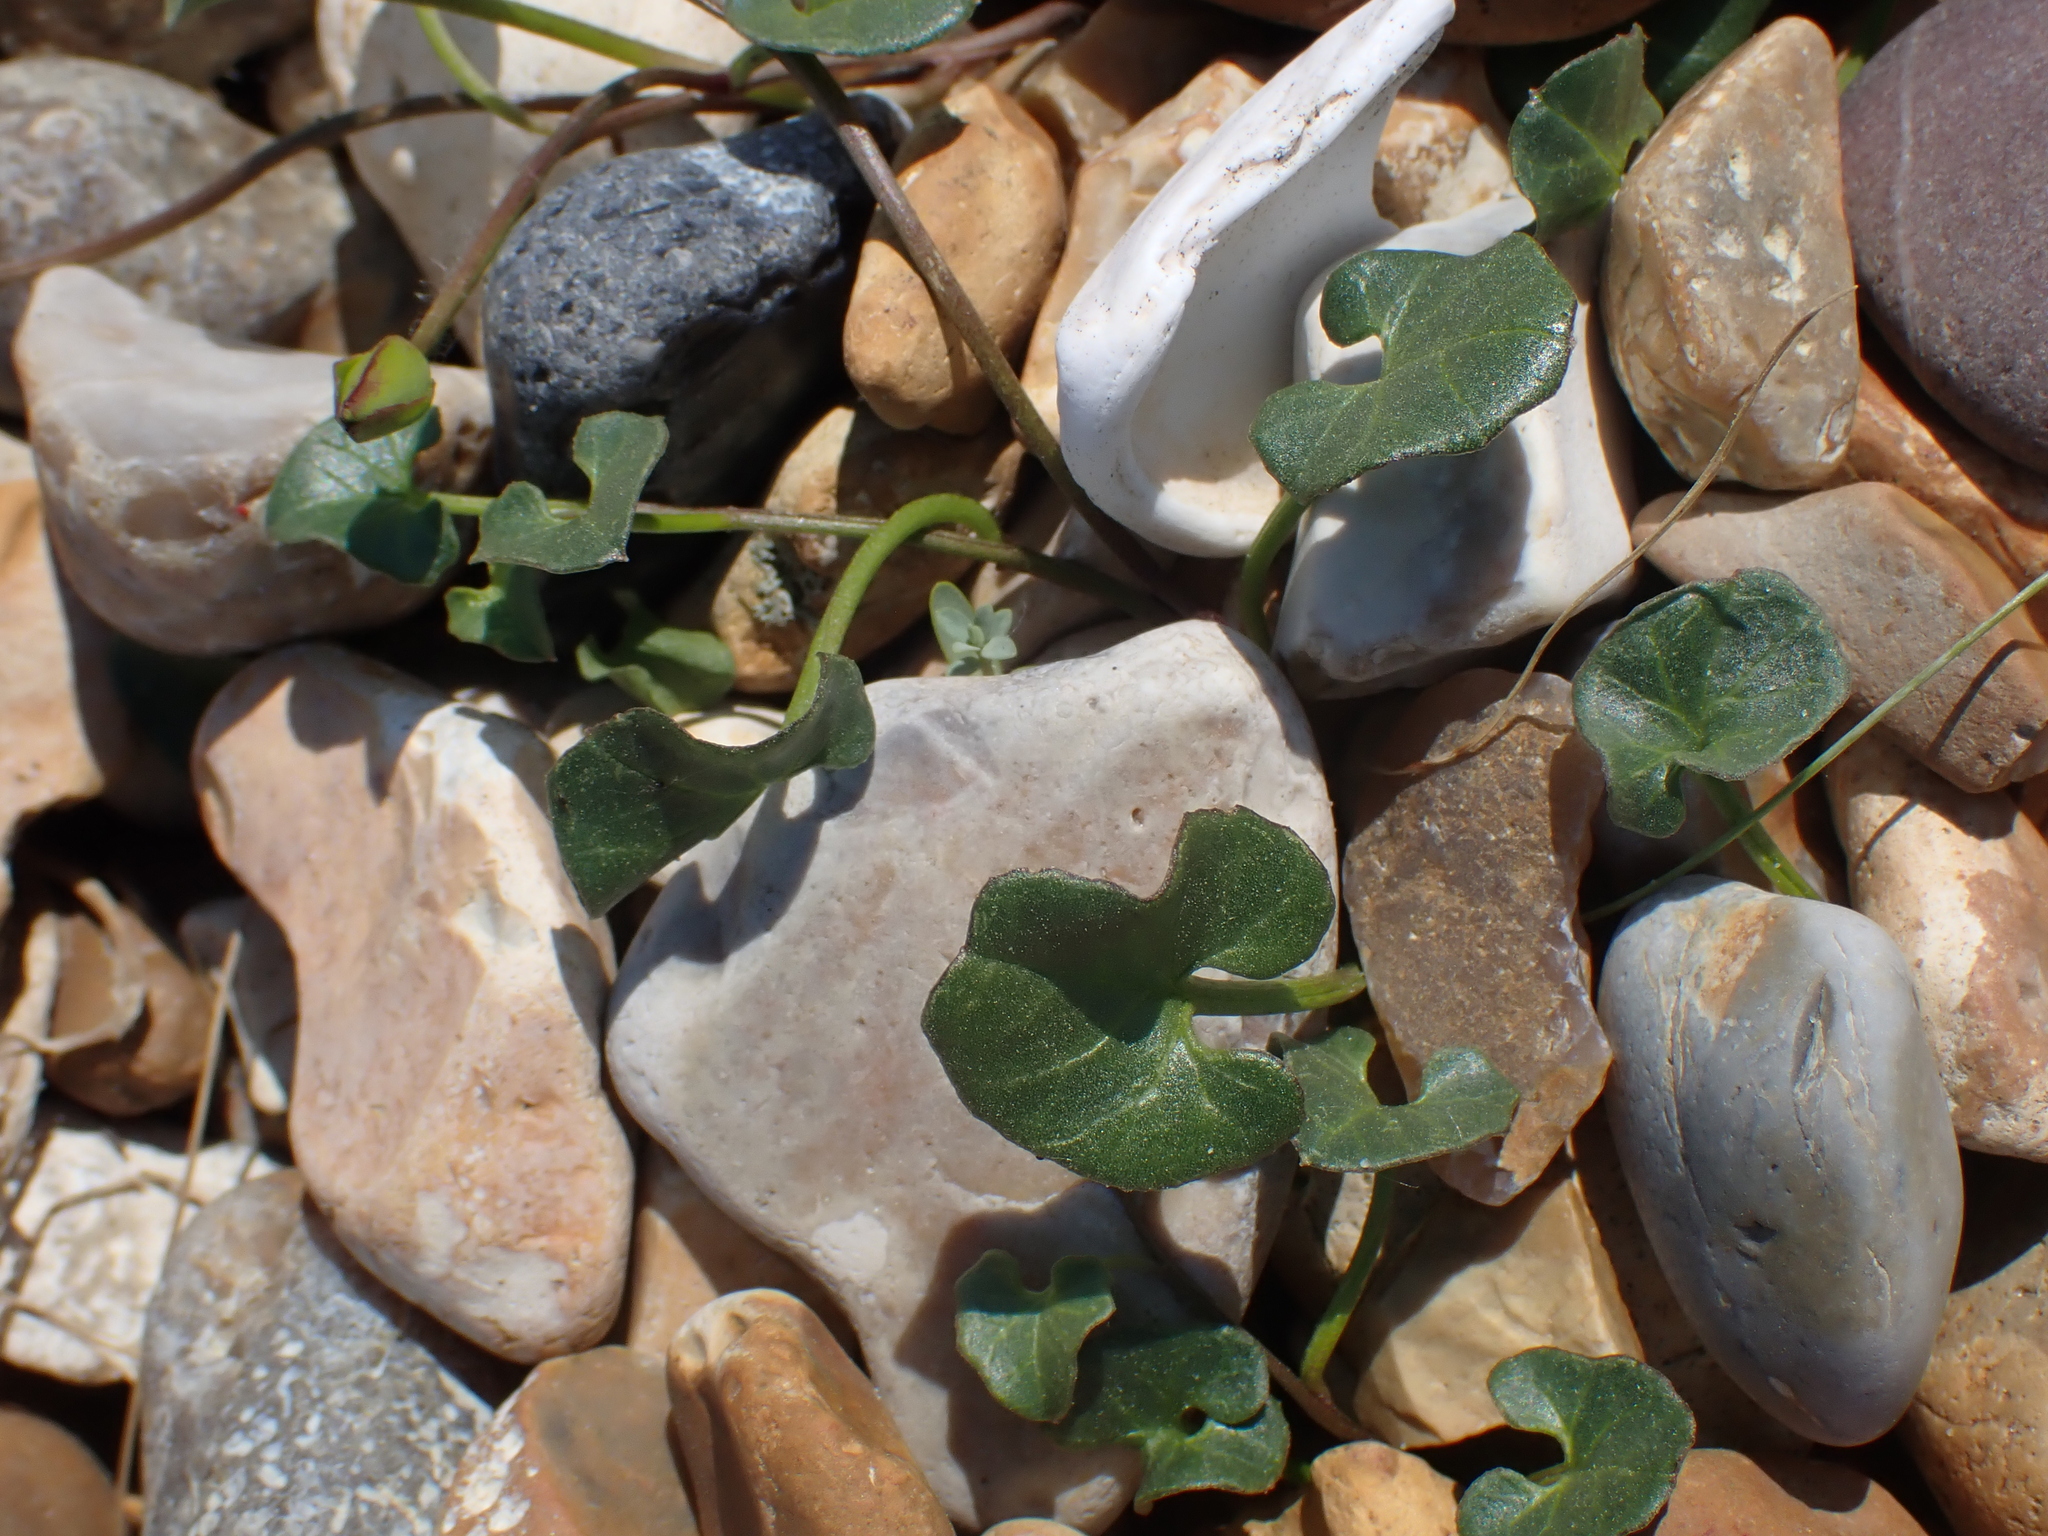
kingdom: Plantae
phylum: Tracheophyta
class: Magnoliopsida
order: Solanales
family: Convolvulaceae
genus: Calystegia
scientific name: Calystegia soldanella
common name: Sea bindweed
